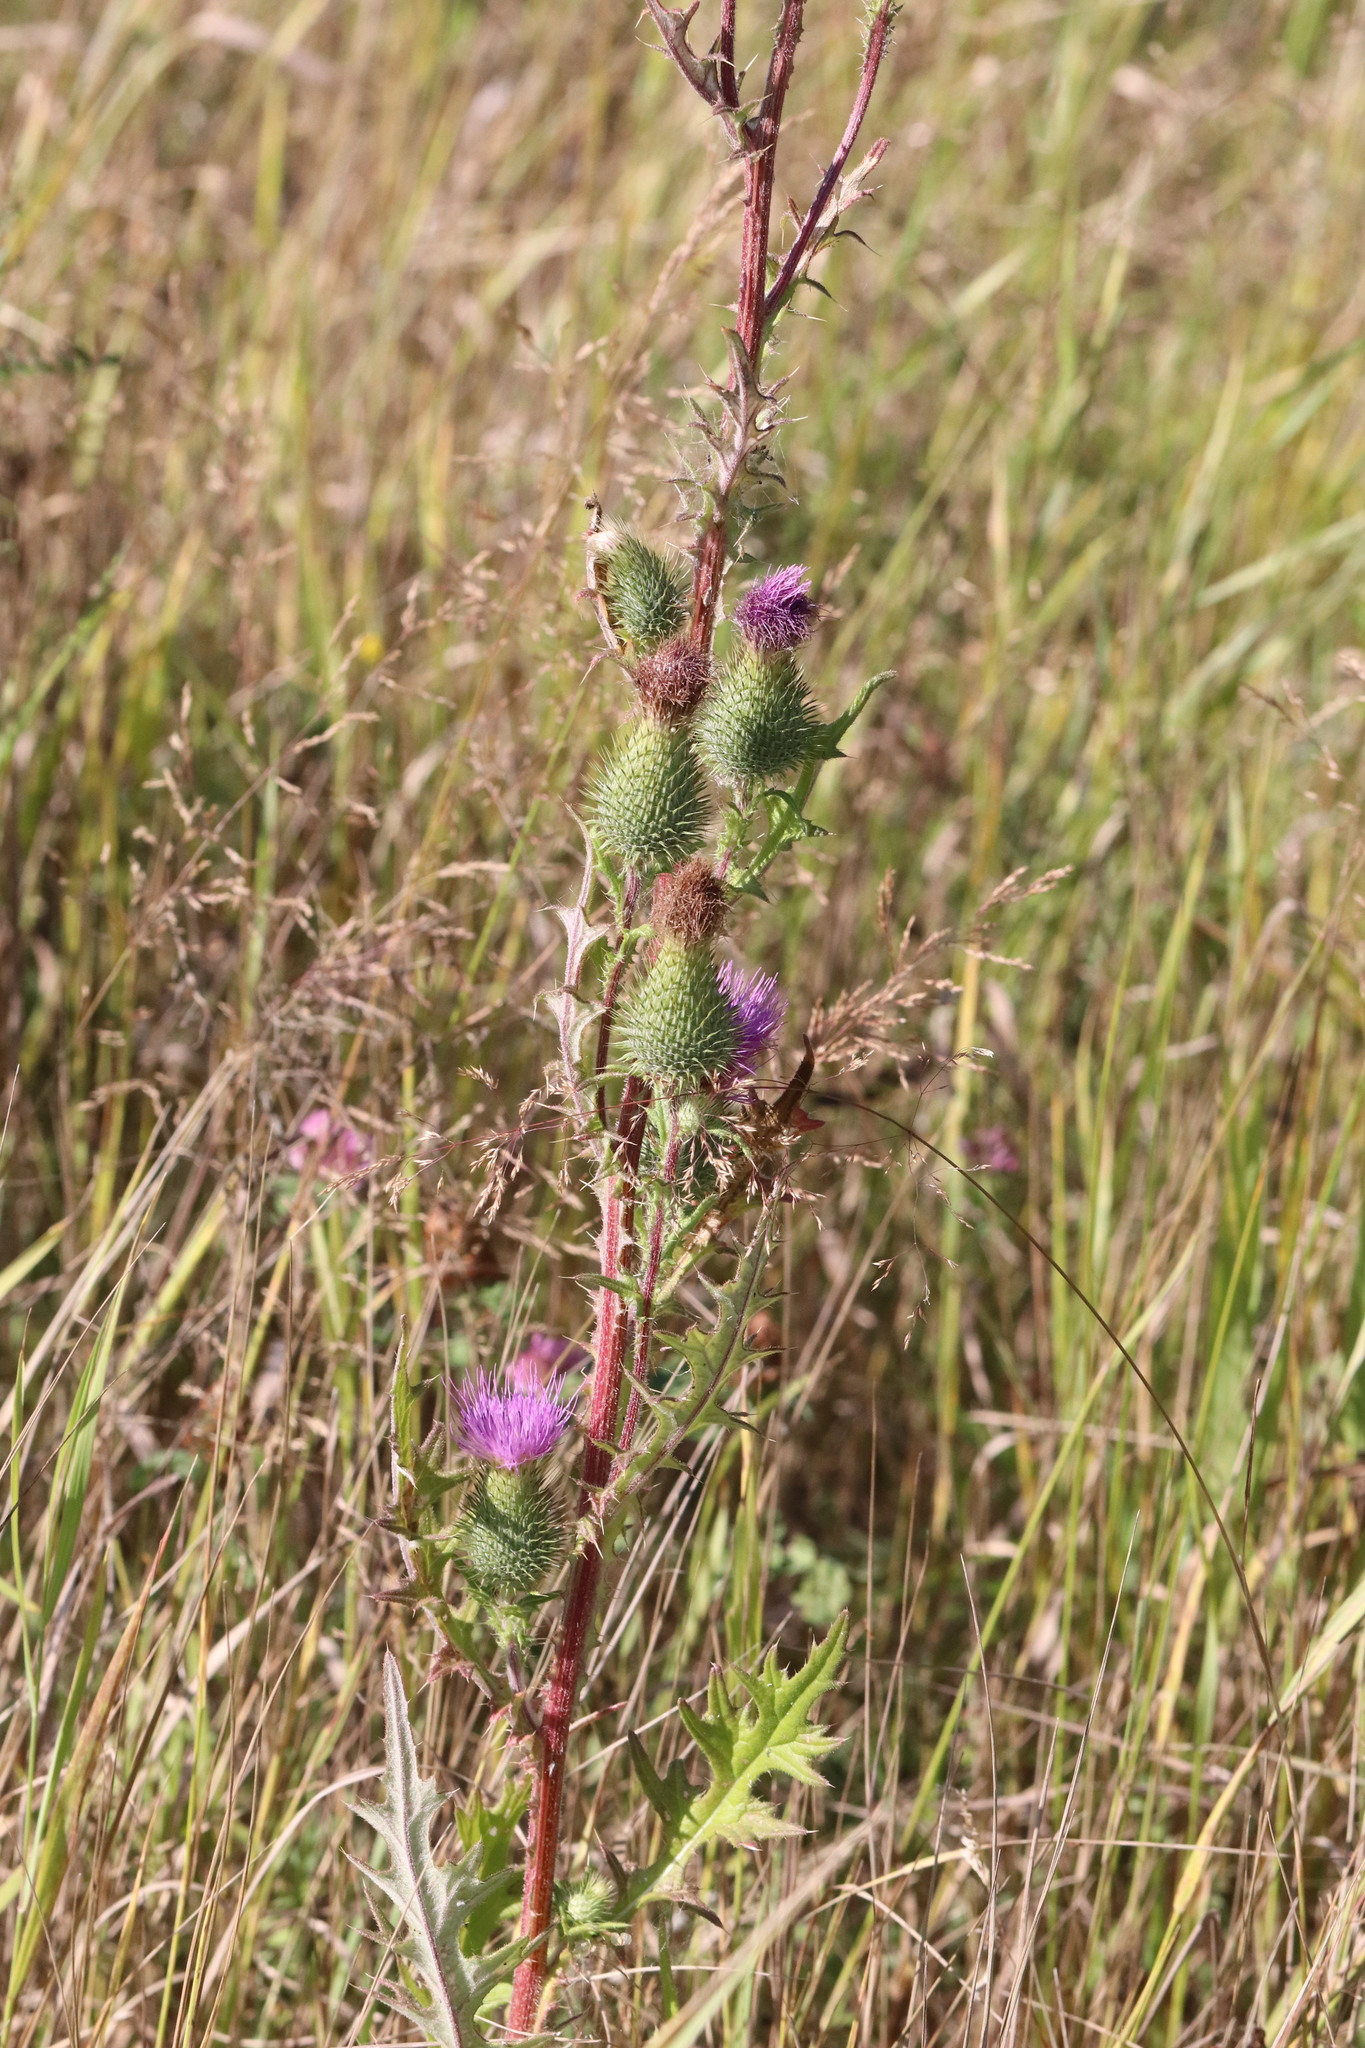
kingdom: Plantae
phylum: Tracheophyta
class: Magnoliopsida
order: Asterales
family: Asteraceae
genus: Cirsium
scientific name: Cirsium vulgare
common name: Bull thistle
